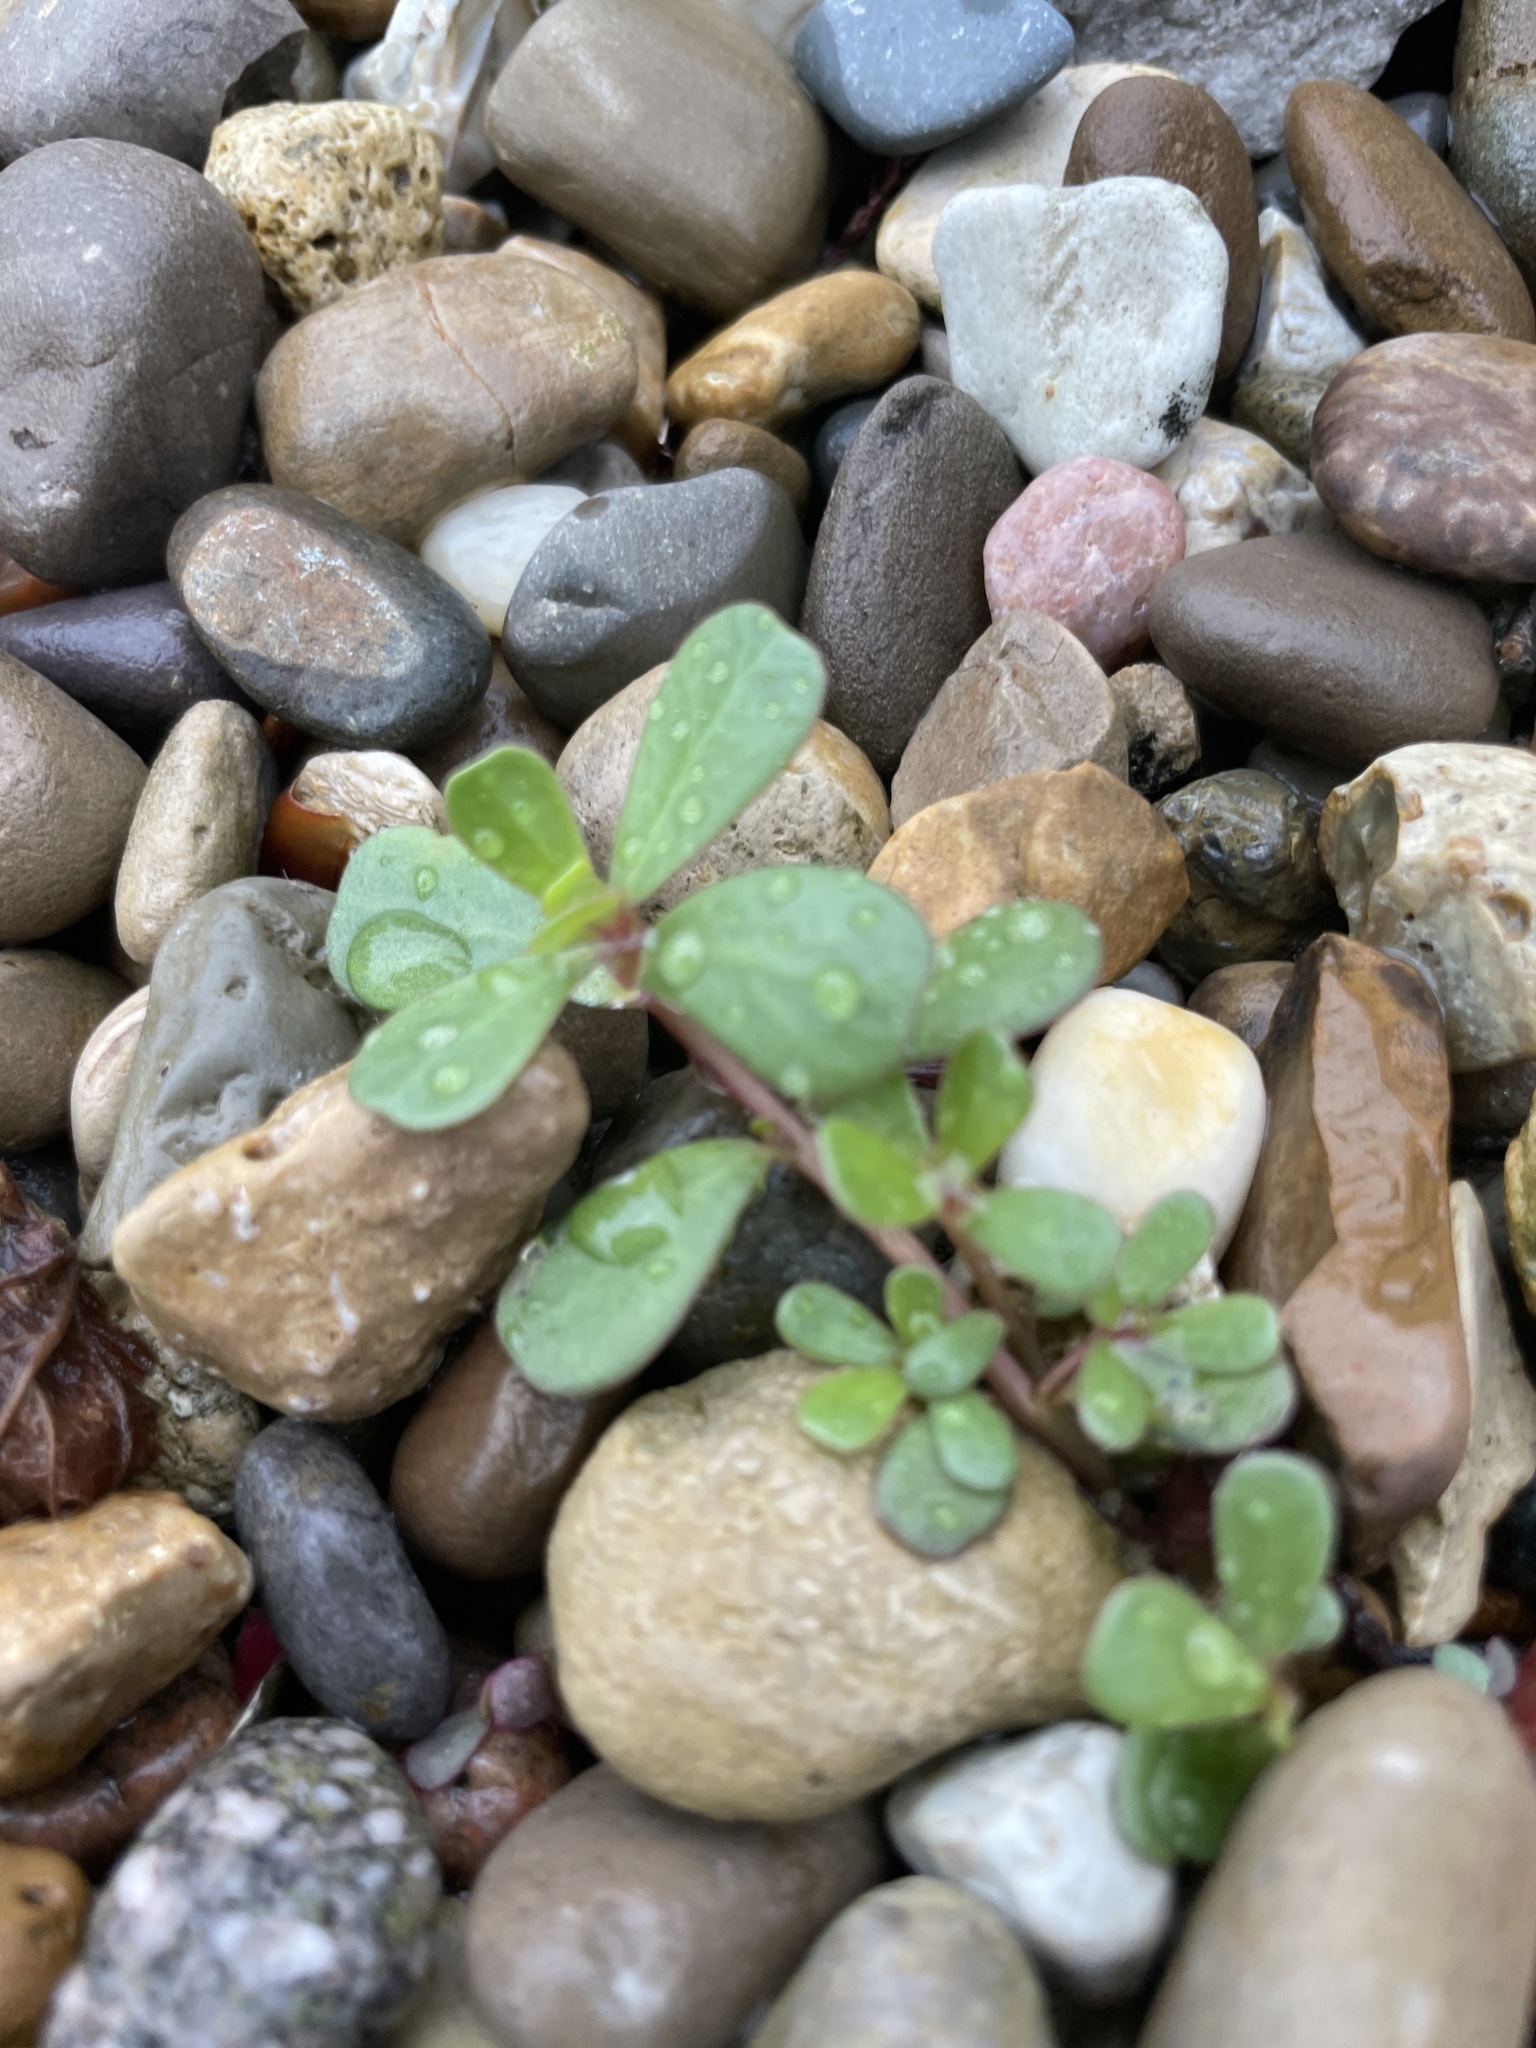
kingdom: Plantae
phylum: Tracheophyta
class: Magnoliopsida
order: Caryophyllales
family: Portulacaceae
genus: Portulaca
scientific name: Portulaca oleracea
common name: Common purslane
